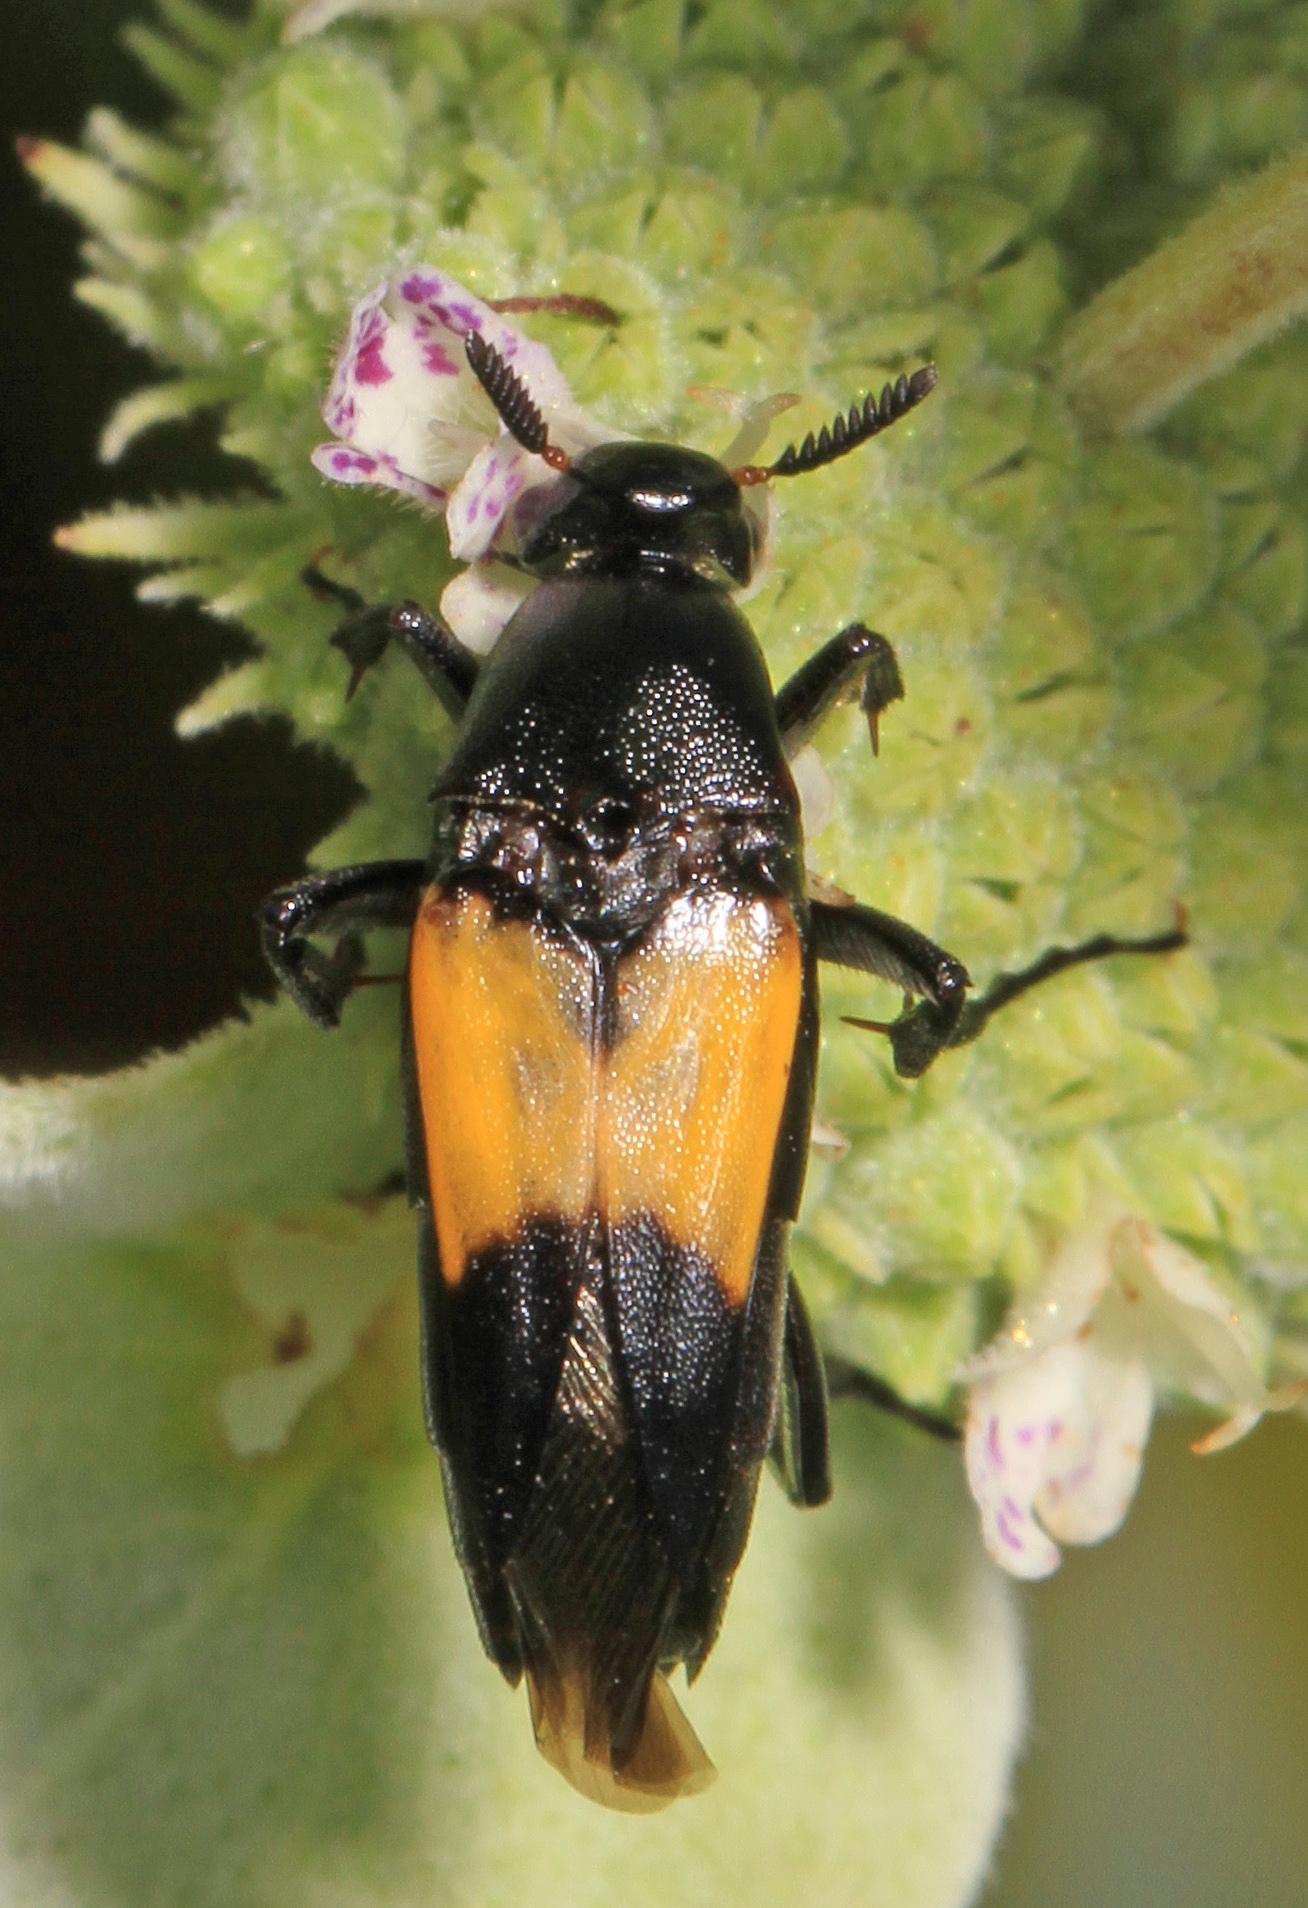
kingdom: Animalia
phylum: Arthropoda
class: Insecta
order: Coleoptera
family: Ripiphoridae
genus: Macrosiagon
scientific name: Macrosiagon dimidiata
